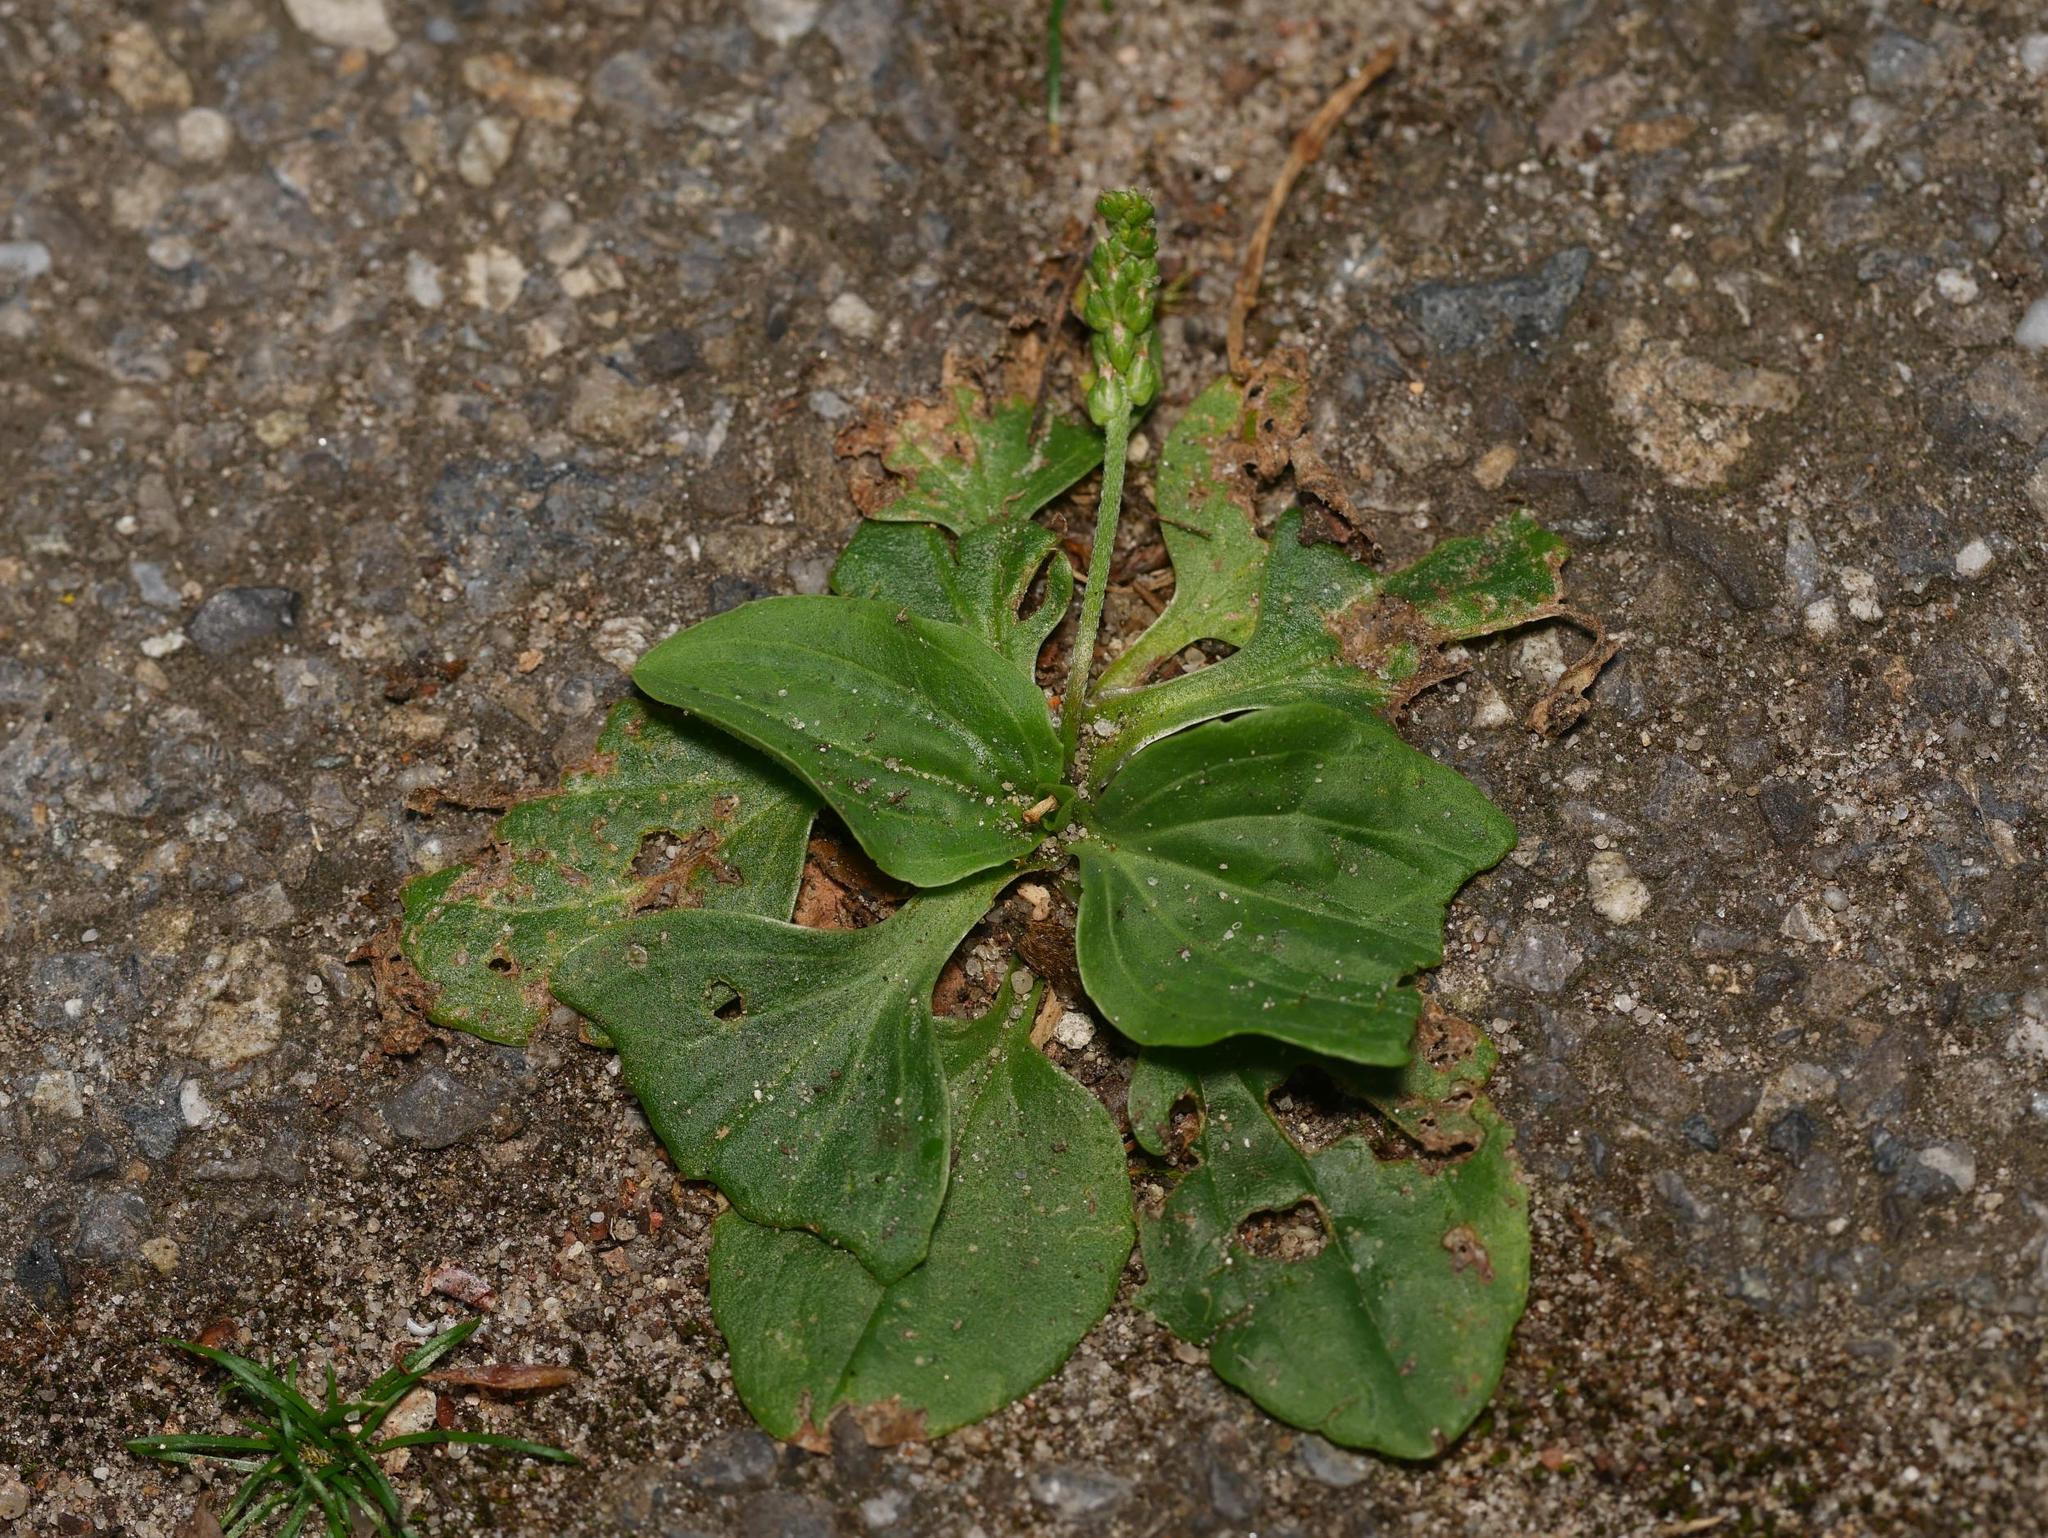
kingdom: Plantae
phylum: Tracheophyta
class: Magnoliopsida
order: Lamiales
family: Plantaginaceae
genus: Plantago
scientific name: Plantago major
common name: Common plantain
